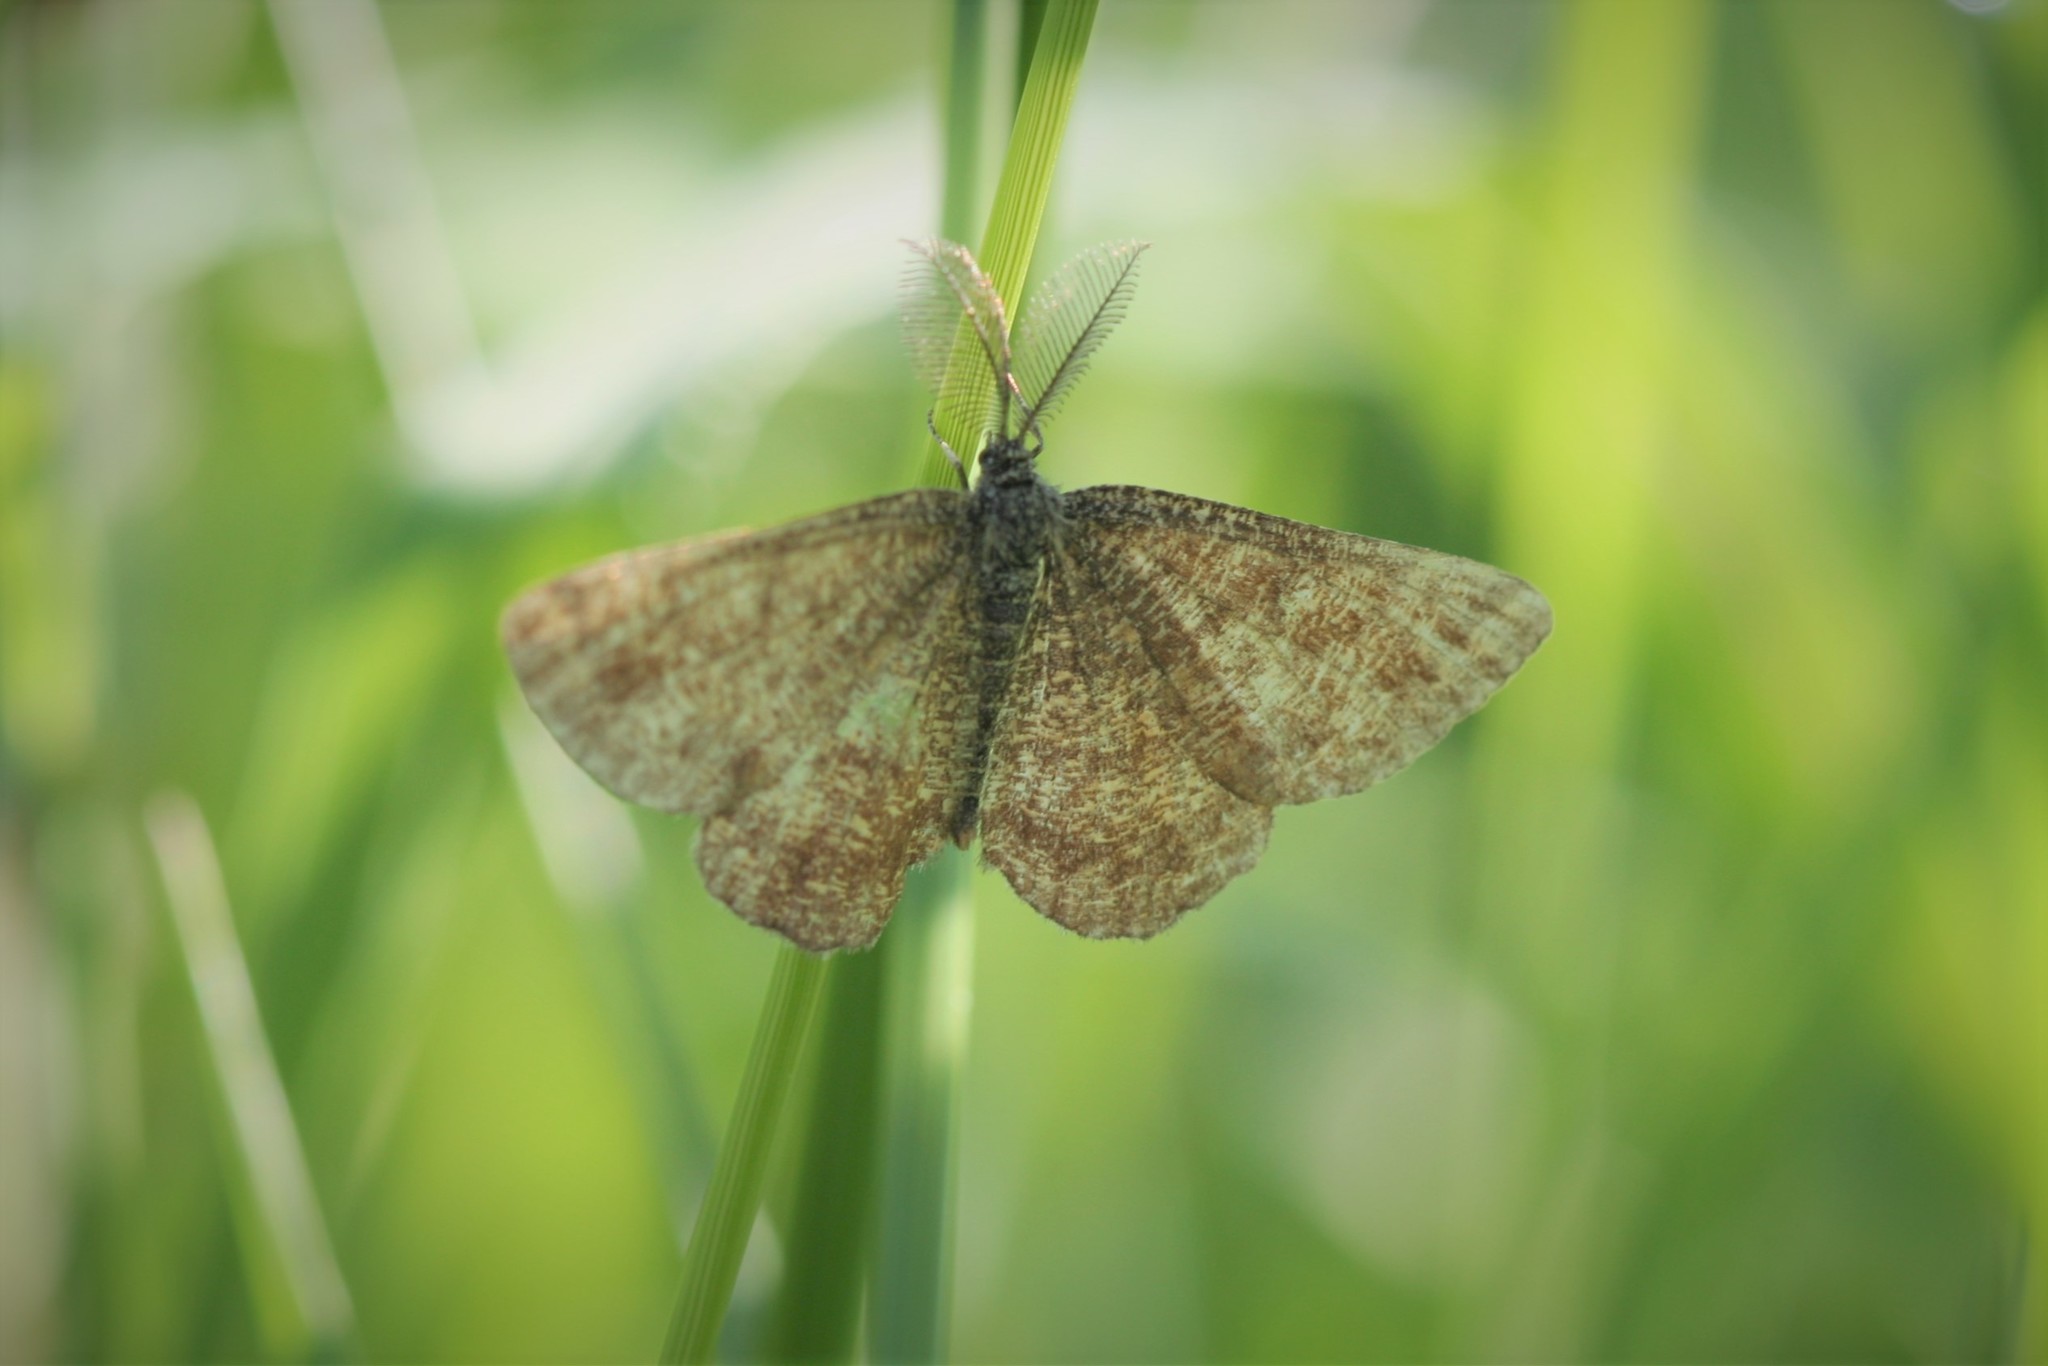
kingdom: Animalia
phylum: Arthropoda
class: Insecta
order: Lepidoptera
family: Geometridae
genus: Ematurga
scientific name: Ematurga atomaria
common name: Common heath
